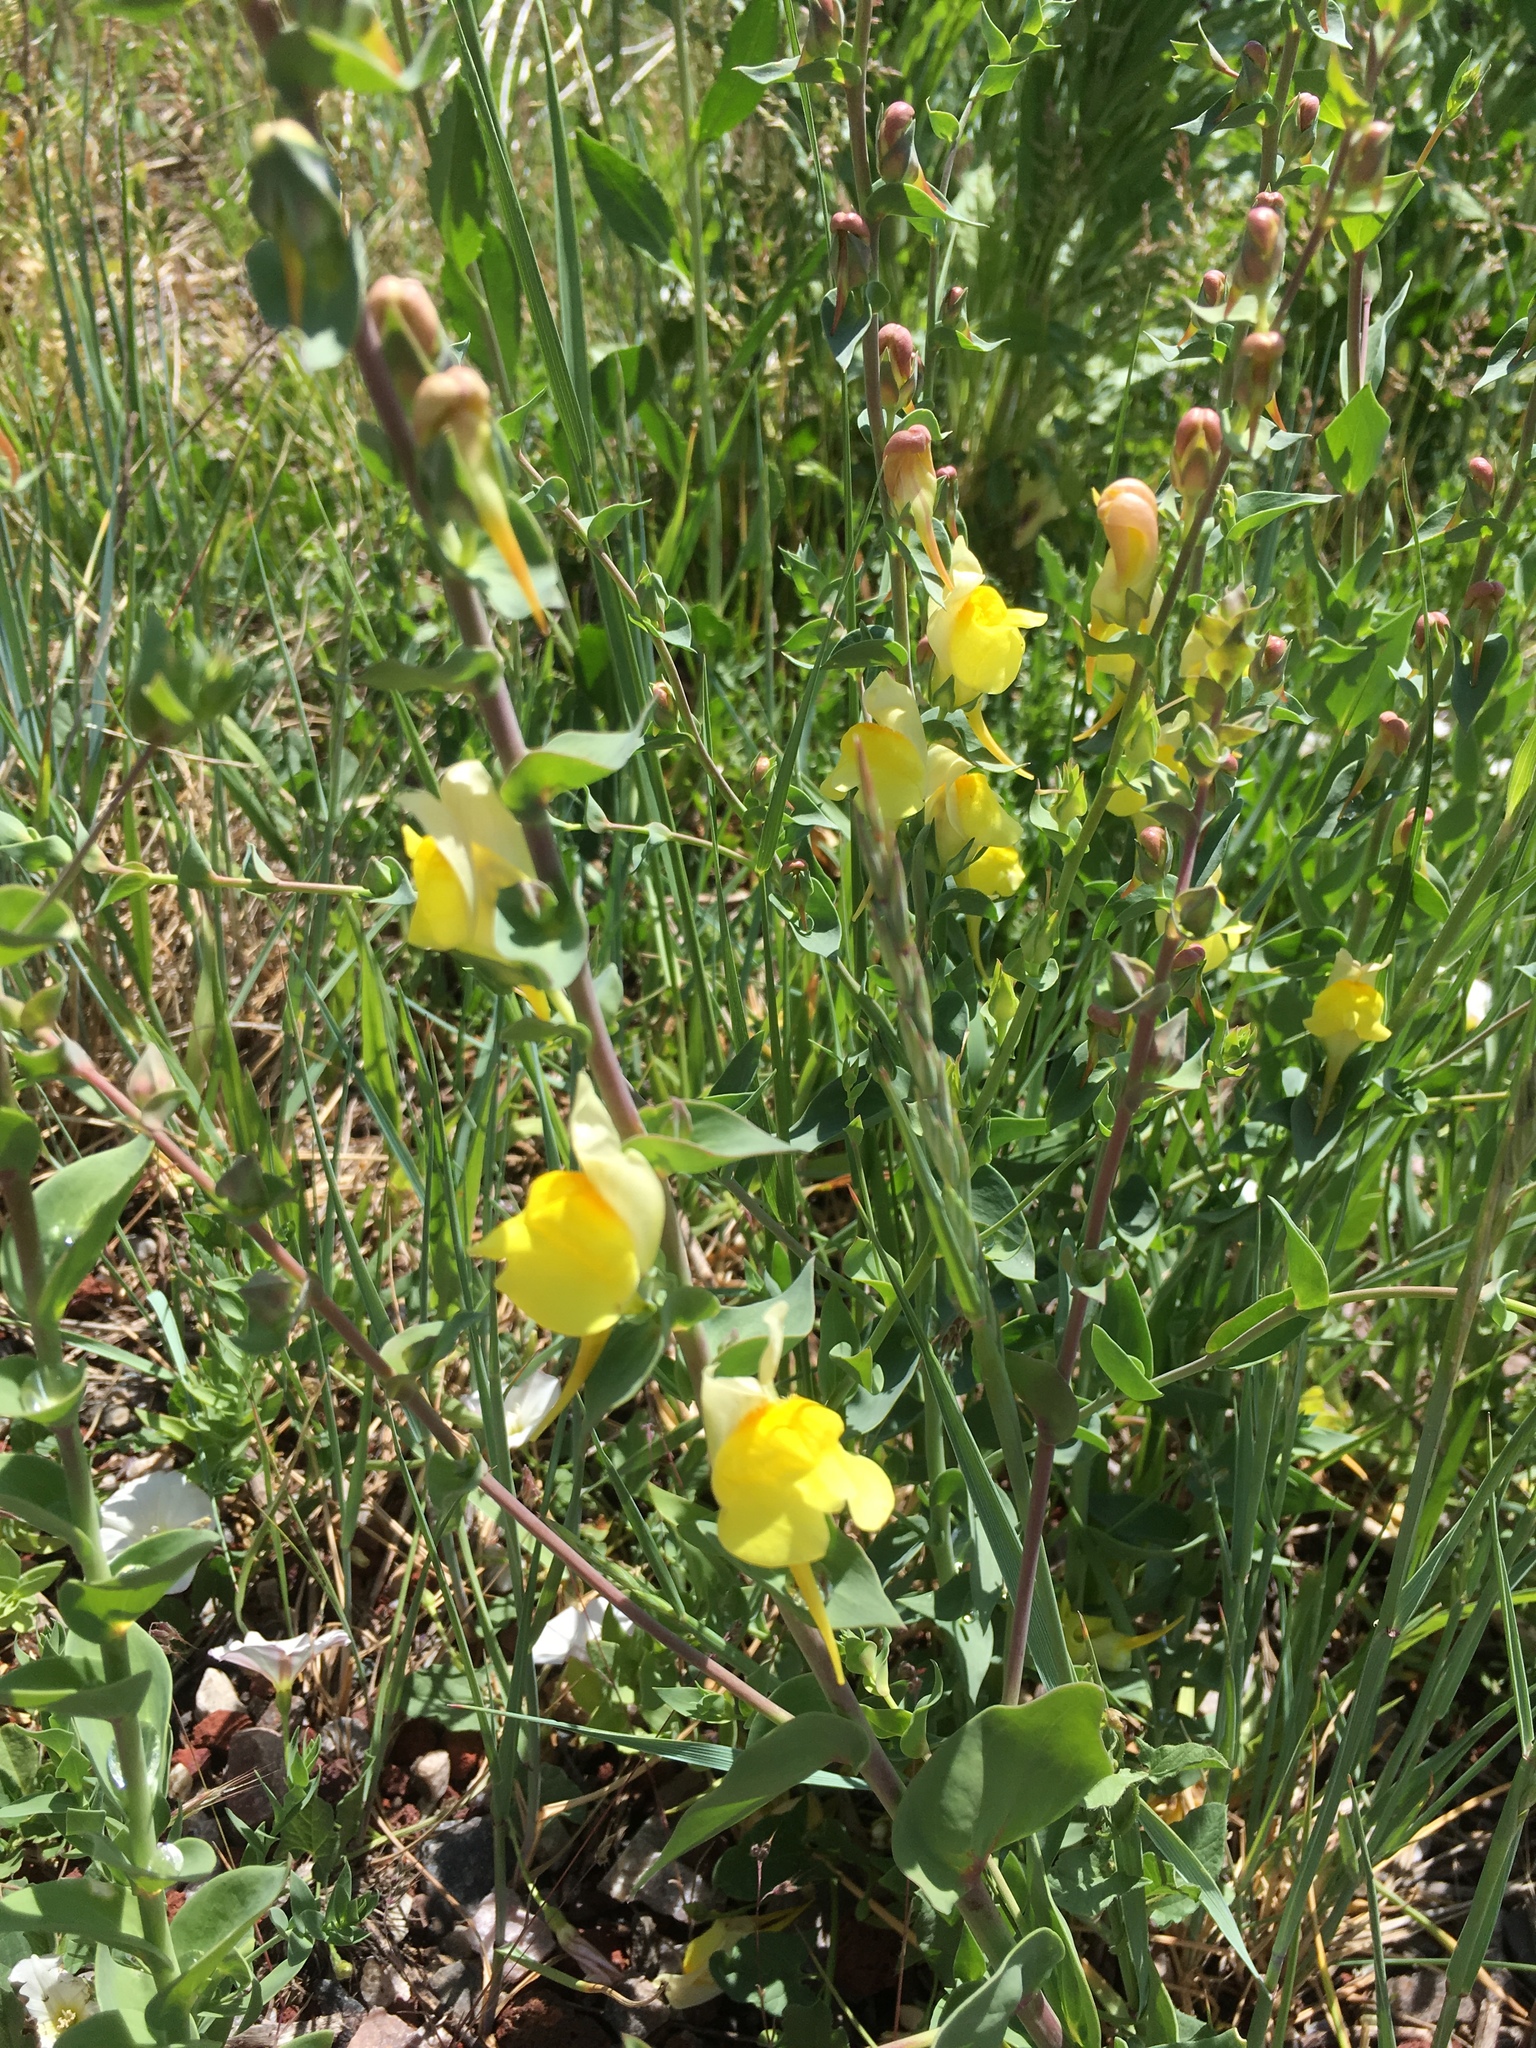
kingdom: Plantae
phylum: Tracheophyta
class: Magnoliopsida
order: Lamiales
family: Plantaginaceae
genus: Linaria
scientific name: Linaria dalmatica
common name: Dalmatian toadflax
